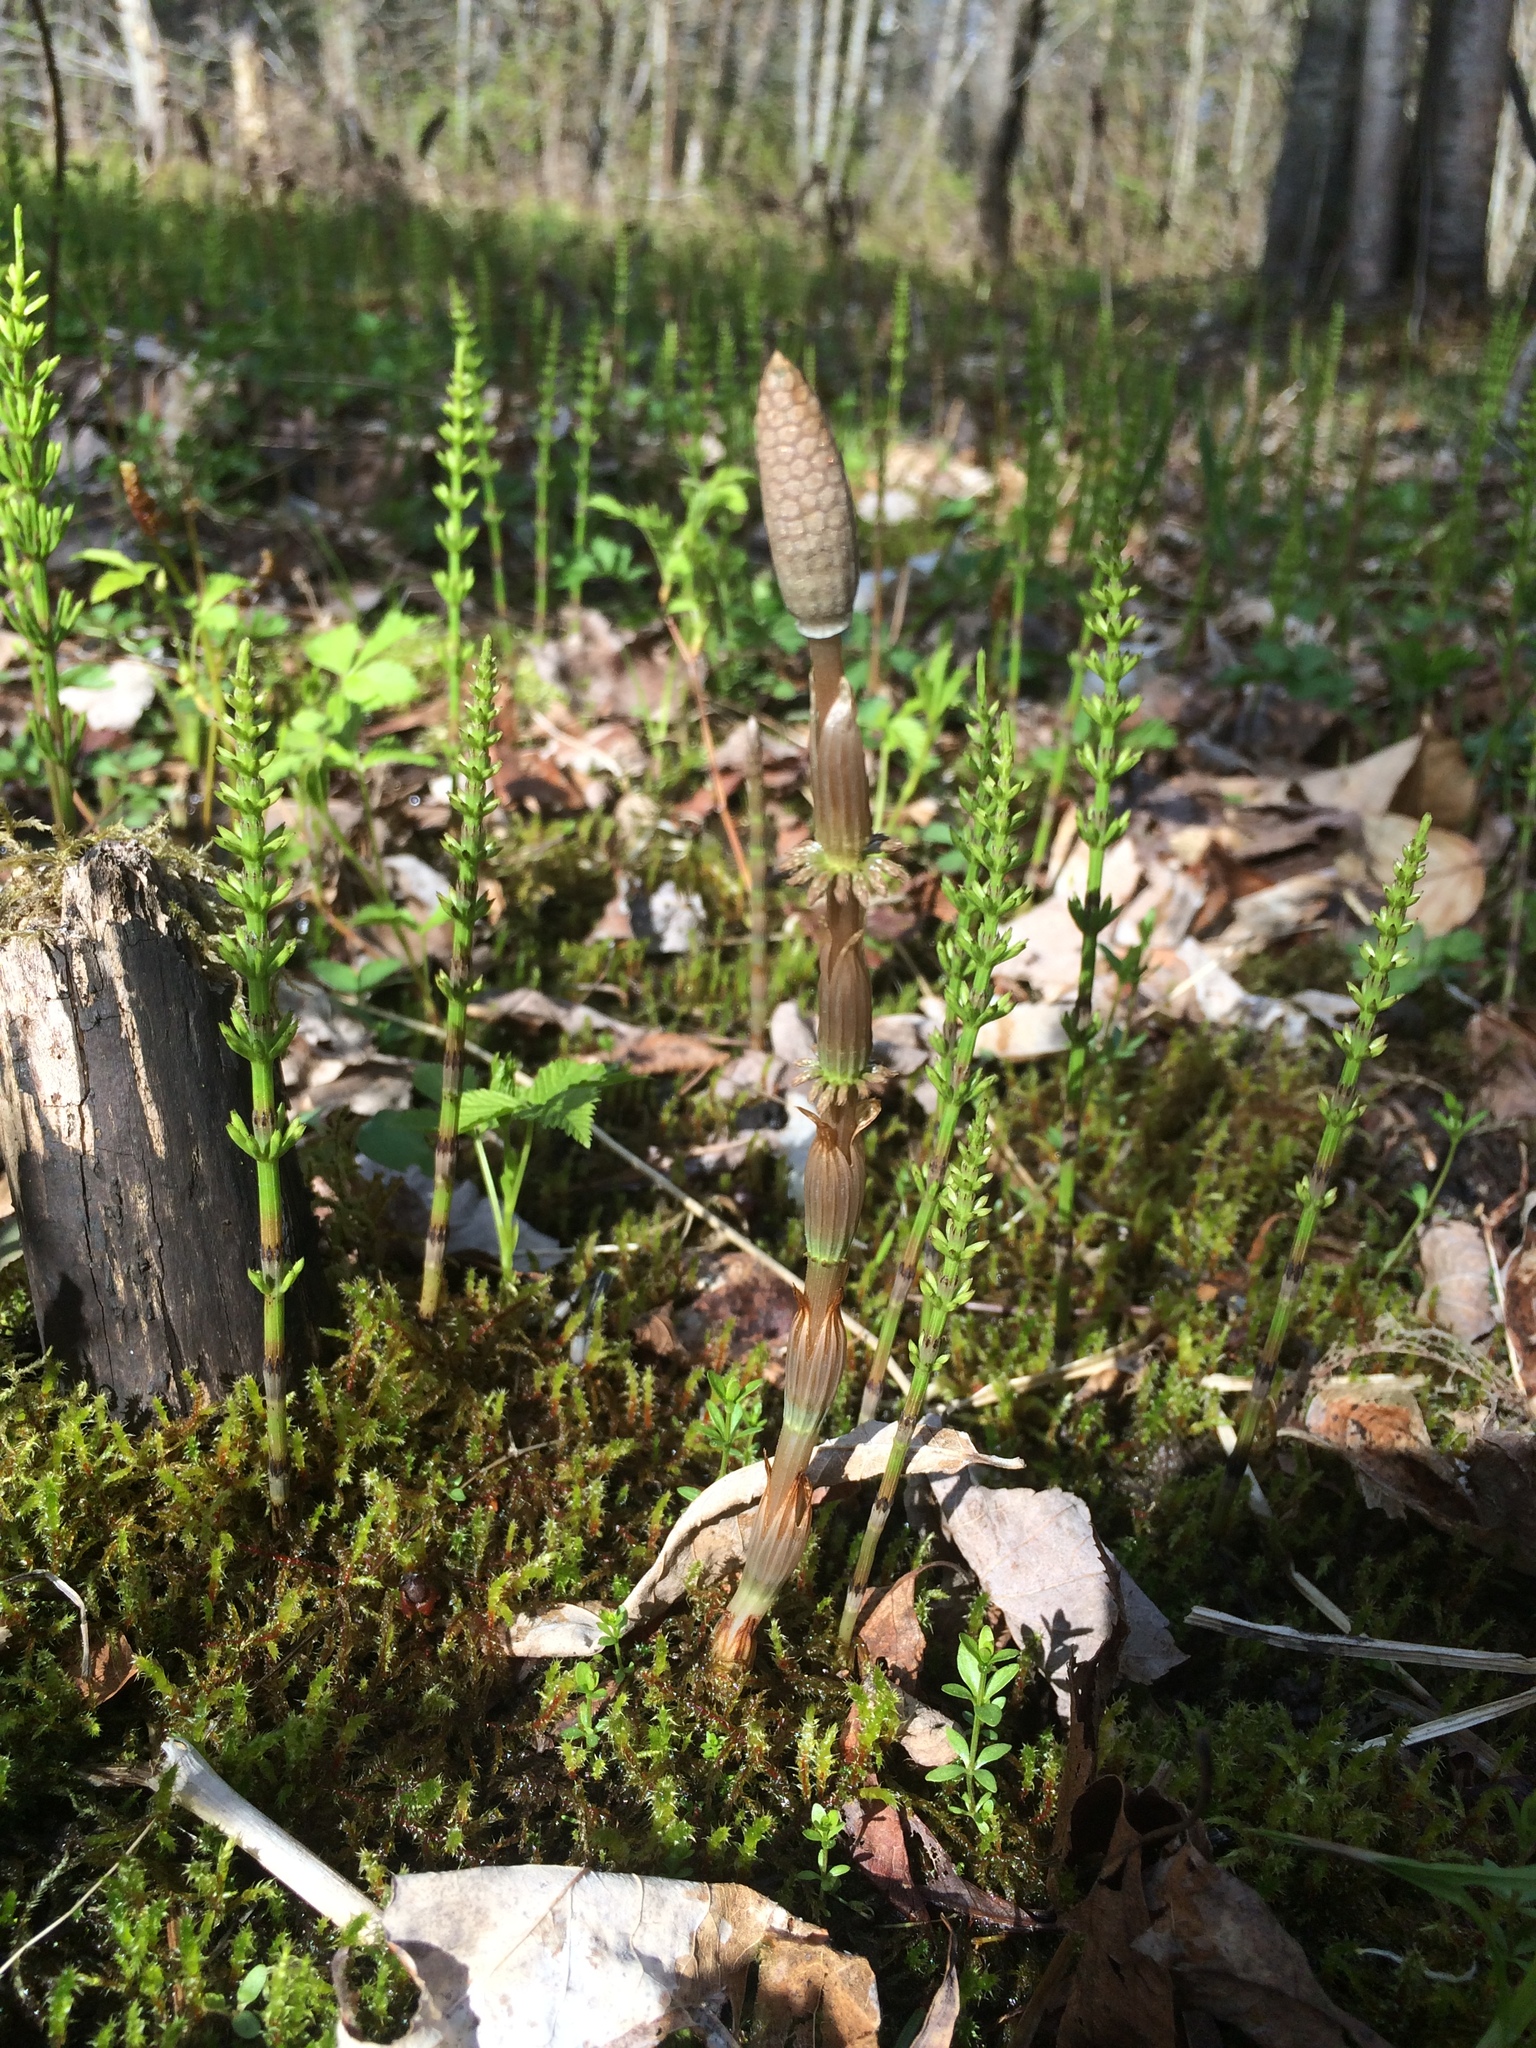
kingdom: Plantae
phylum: Tracheophyta
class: Polypodiopsida
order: Equisetales
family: Equisetaceae
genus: Equisetum
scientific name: Equisetum sylvaticum
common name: Wood horsetail
